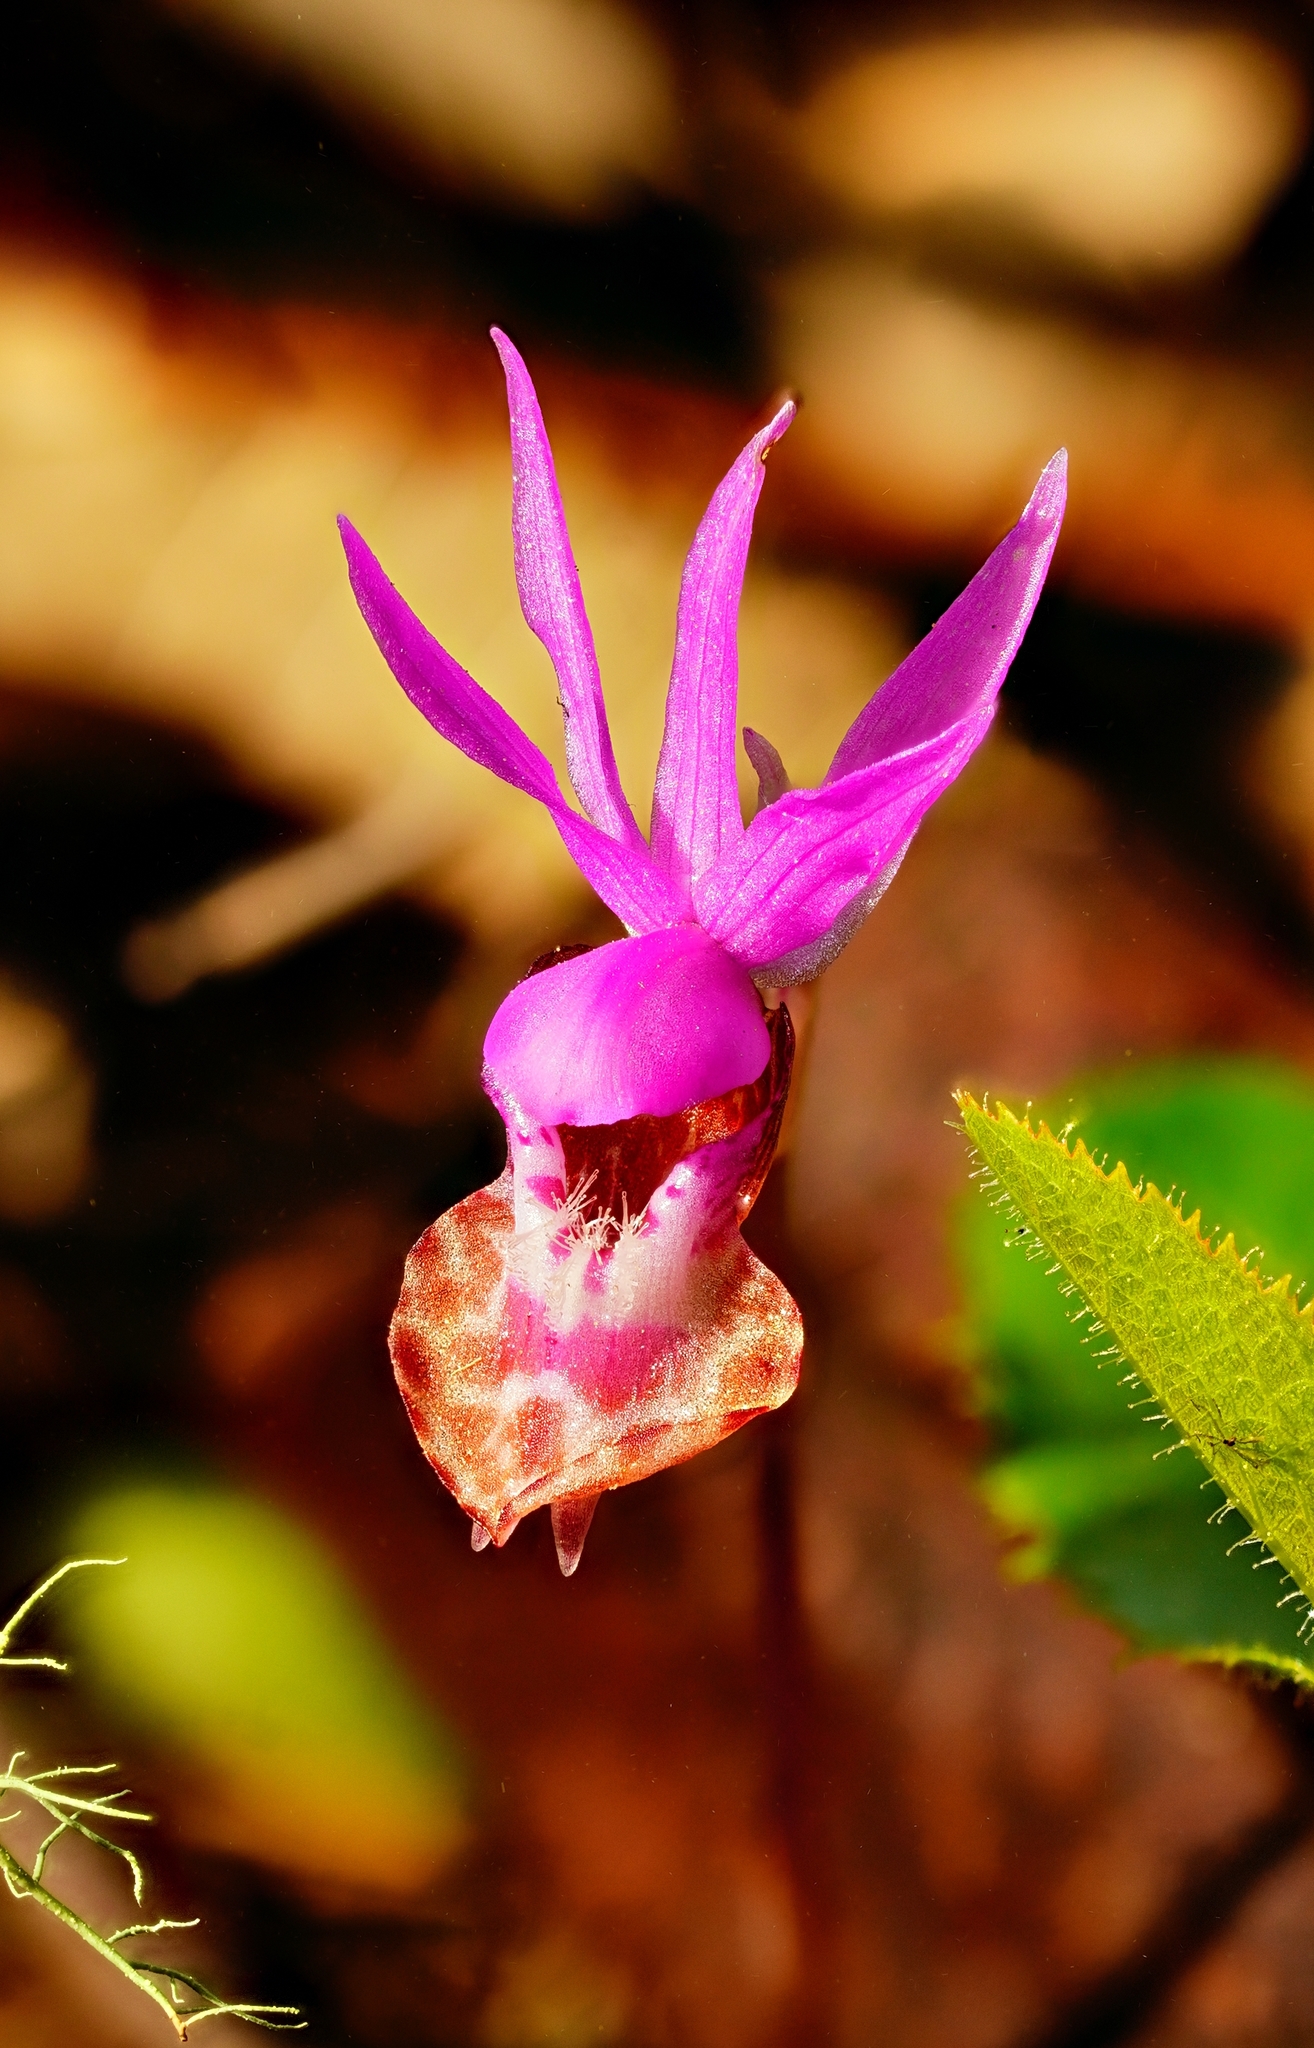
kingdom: Plantae
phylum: Tracheophyta
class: Liliopsida
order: Asparagales
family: Orchidaceae
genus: Calypso
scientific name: Calypso bulbosa
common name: Calypso
